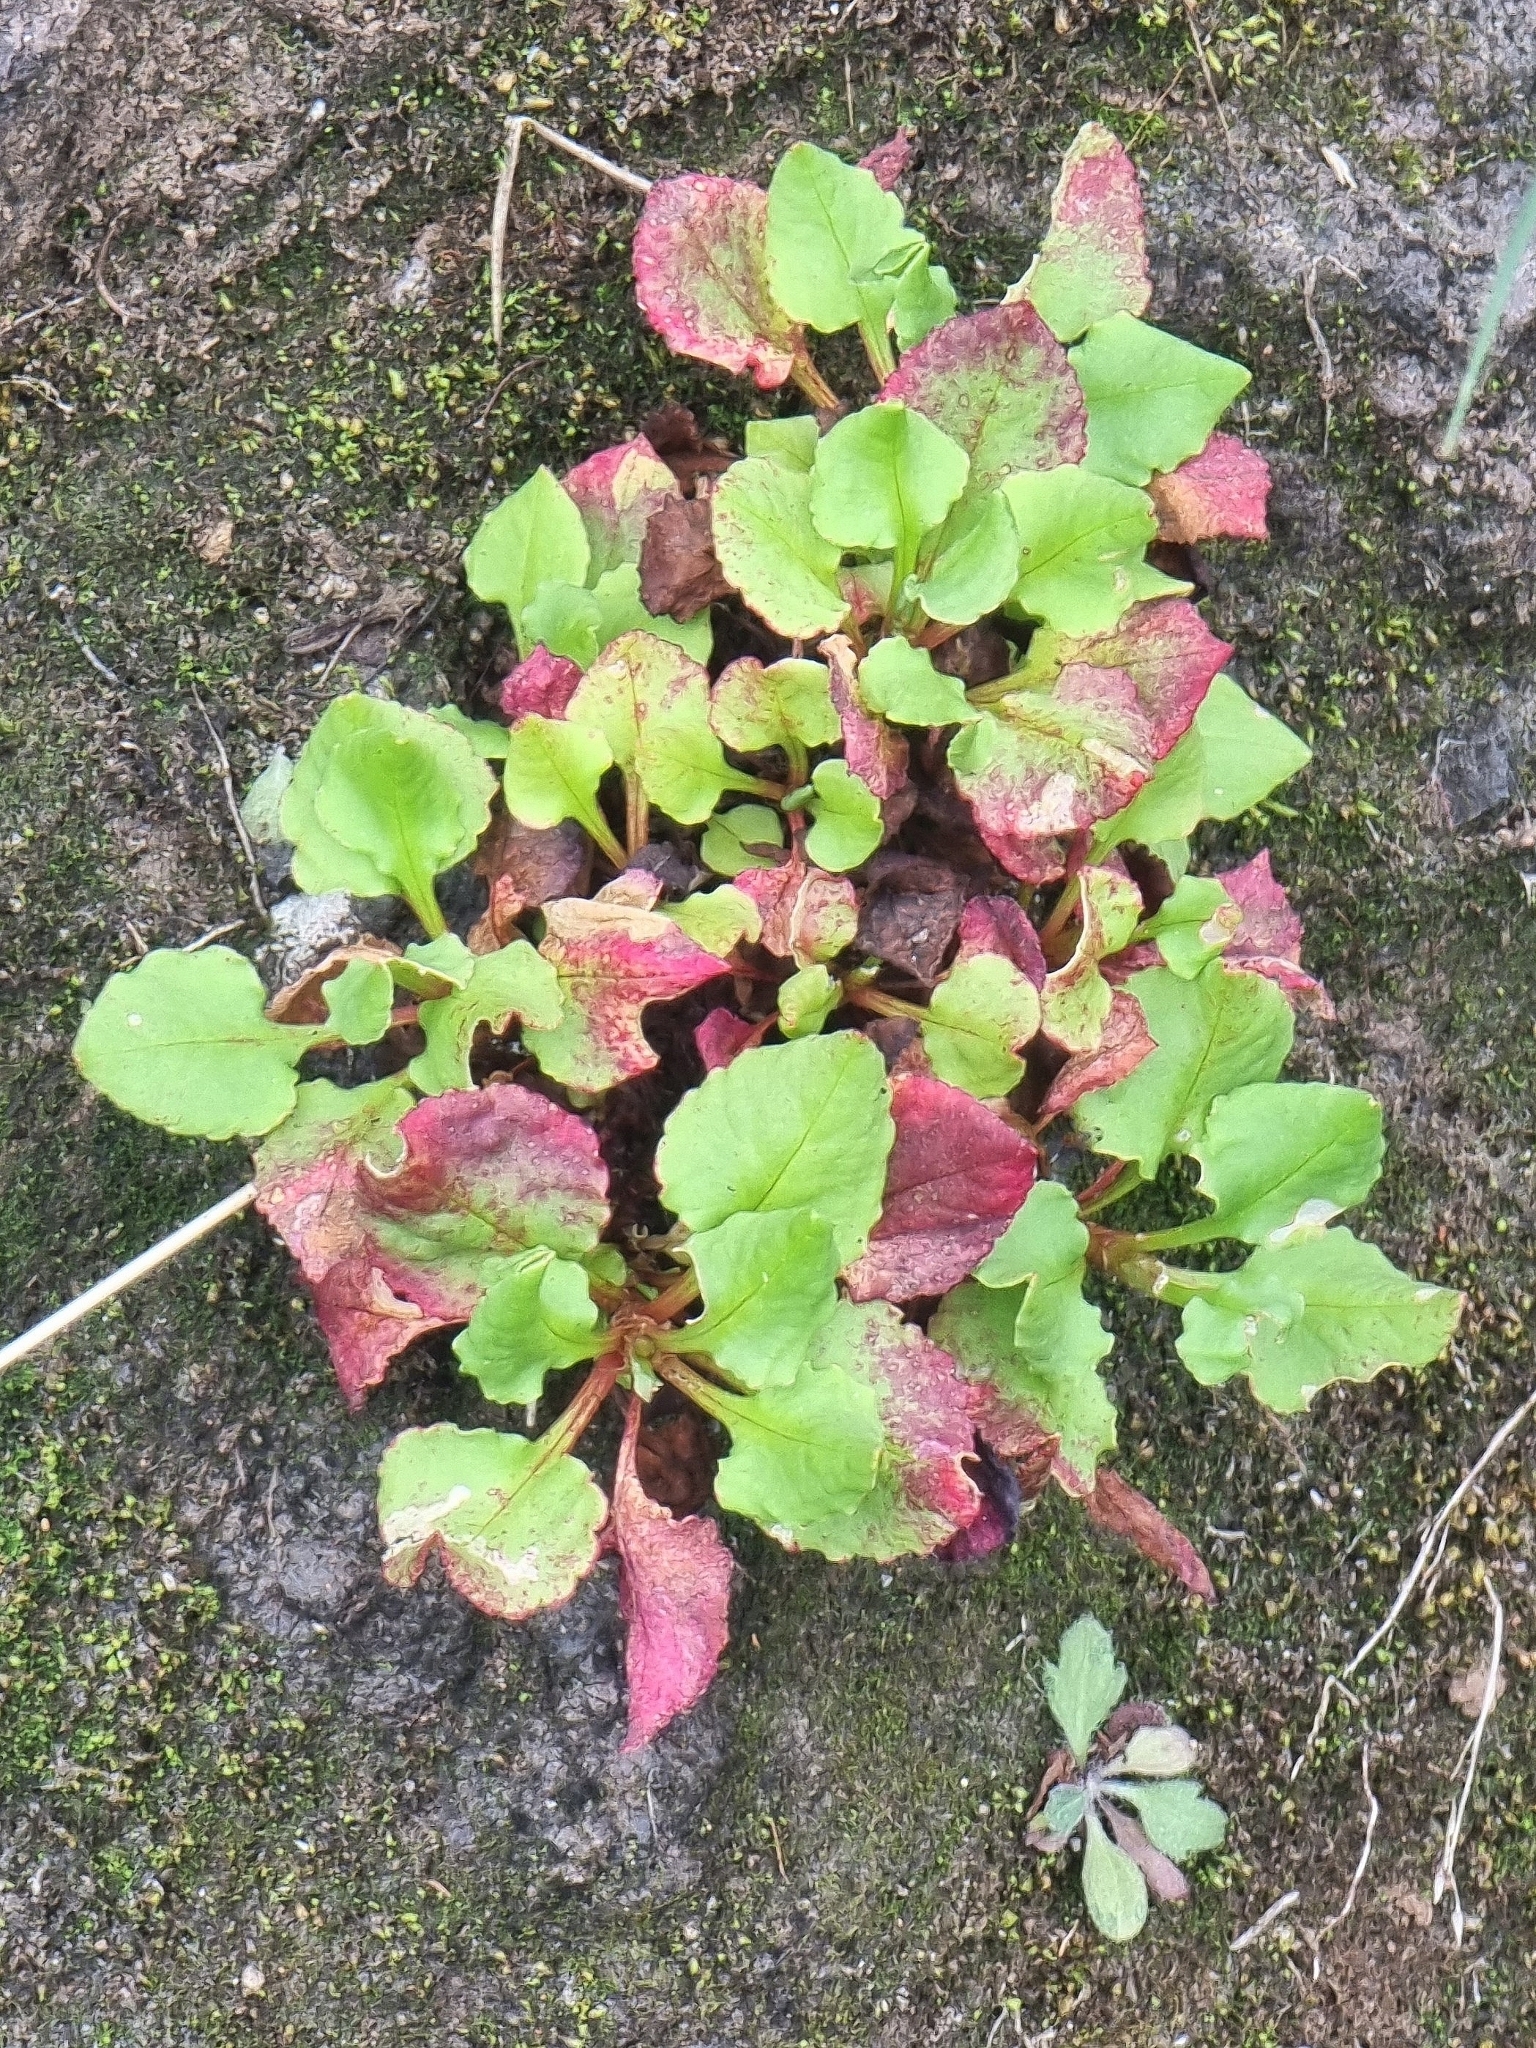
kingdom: Plantae
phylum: Tracheophyta
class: Magnoliopsida
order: Caryophyllales
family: Polygonaceae
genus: Rumex
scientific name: Rumex bucephalophorus
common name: Red dock
